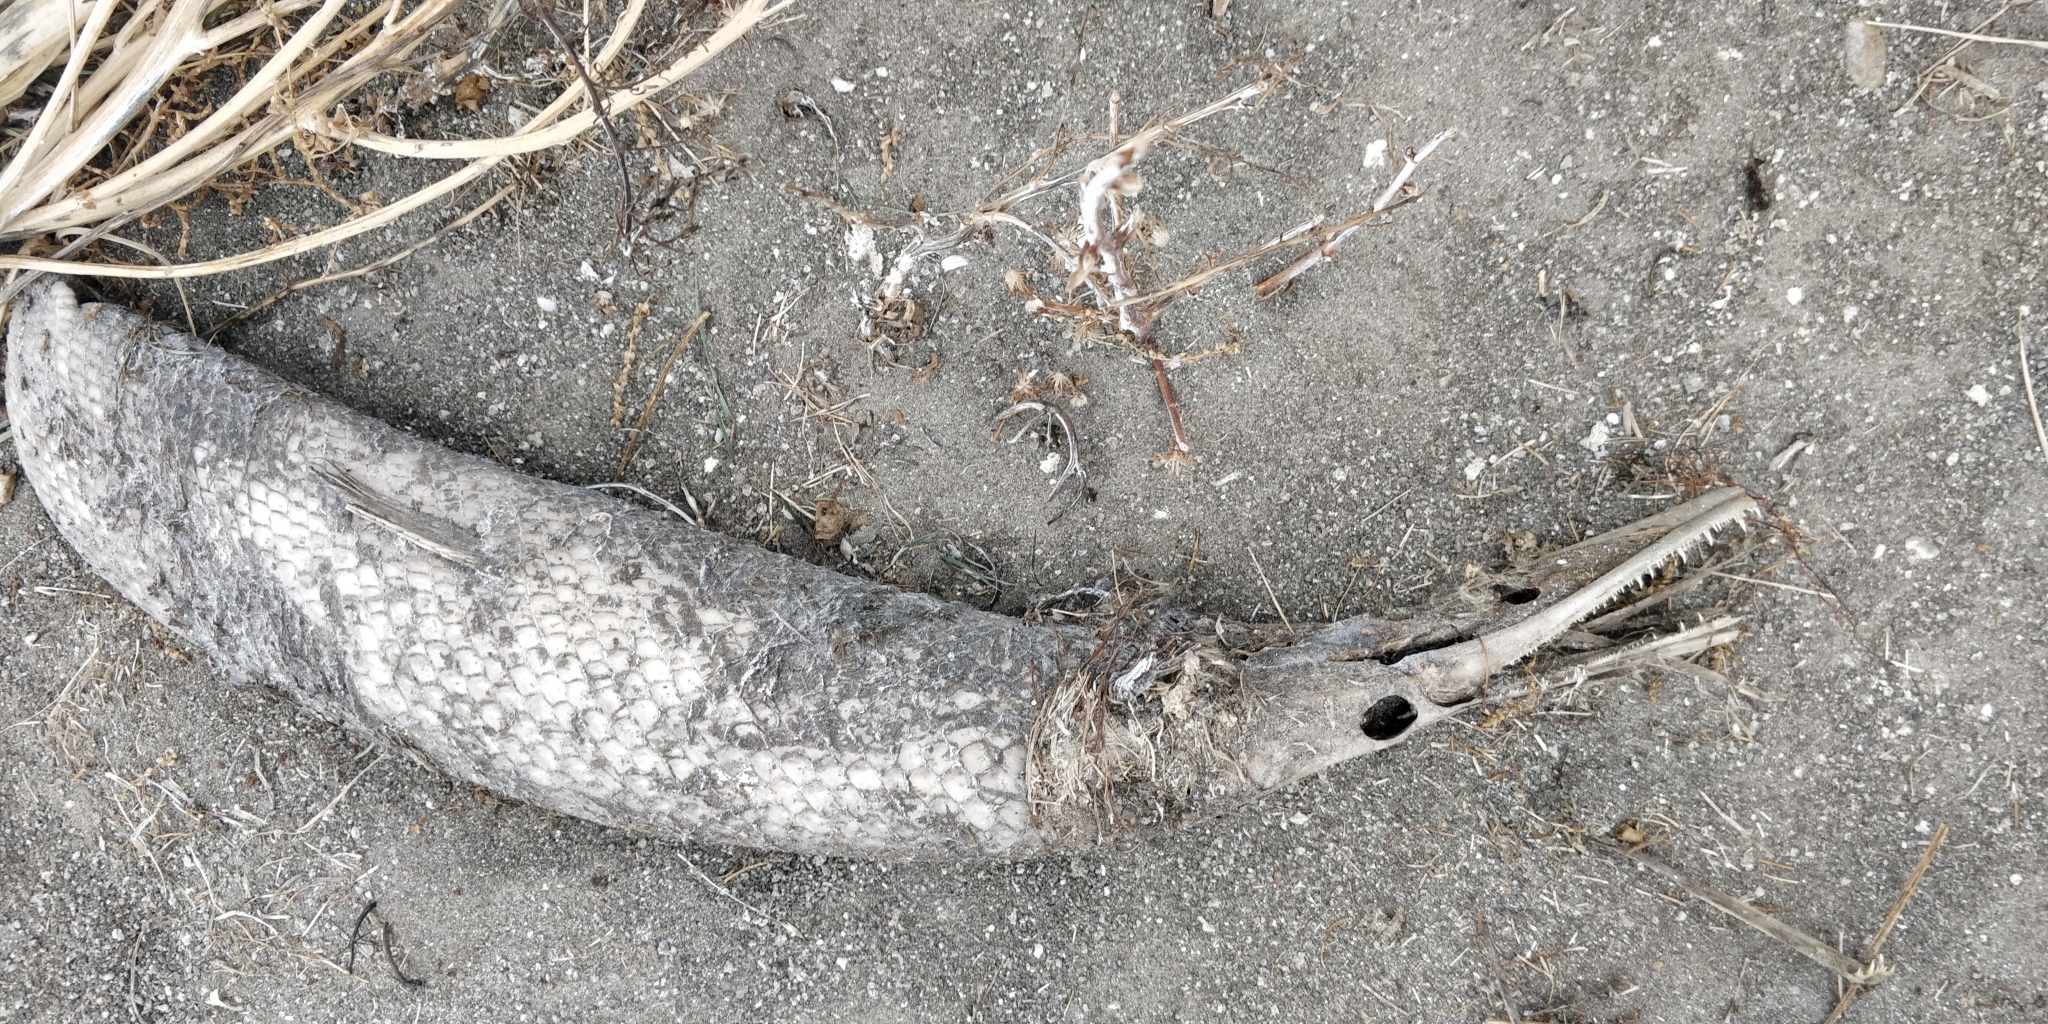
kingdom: Animalia
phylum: Chordata
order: Lepisosteiformes
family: Lepisosteidae
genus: Lepisosteus
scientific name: Lepisosteus platostomus
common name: Shortnose gar
